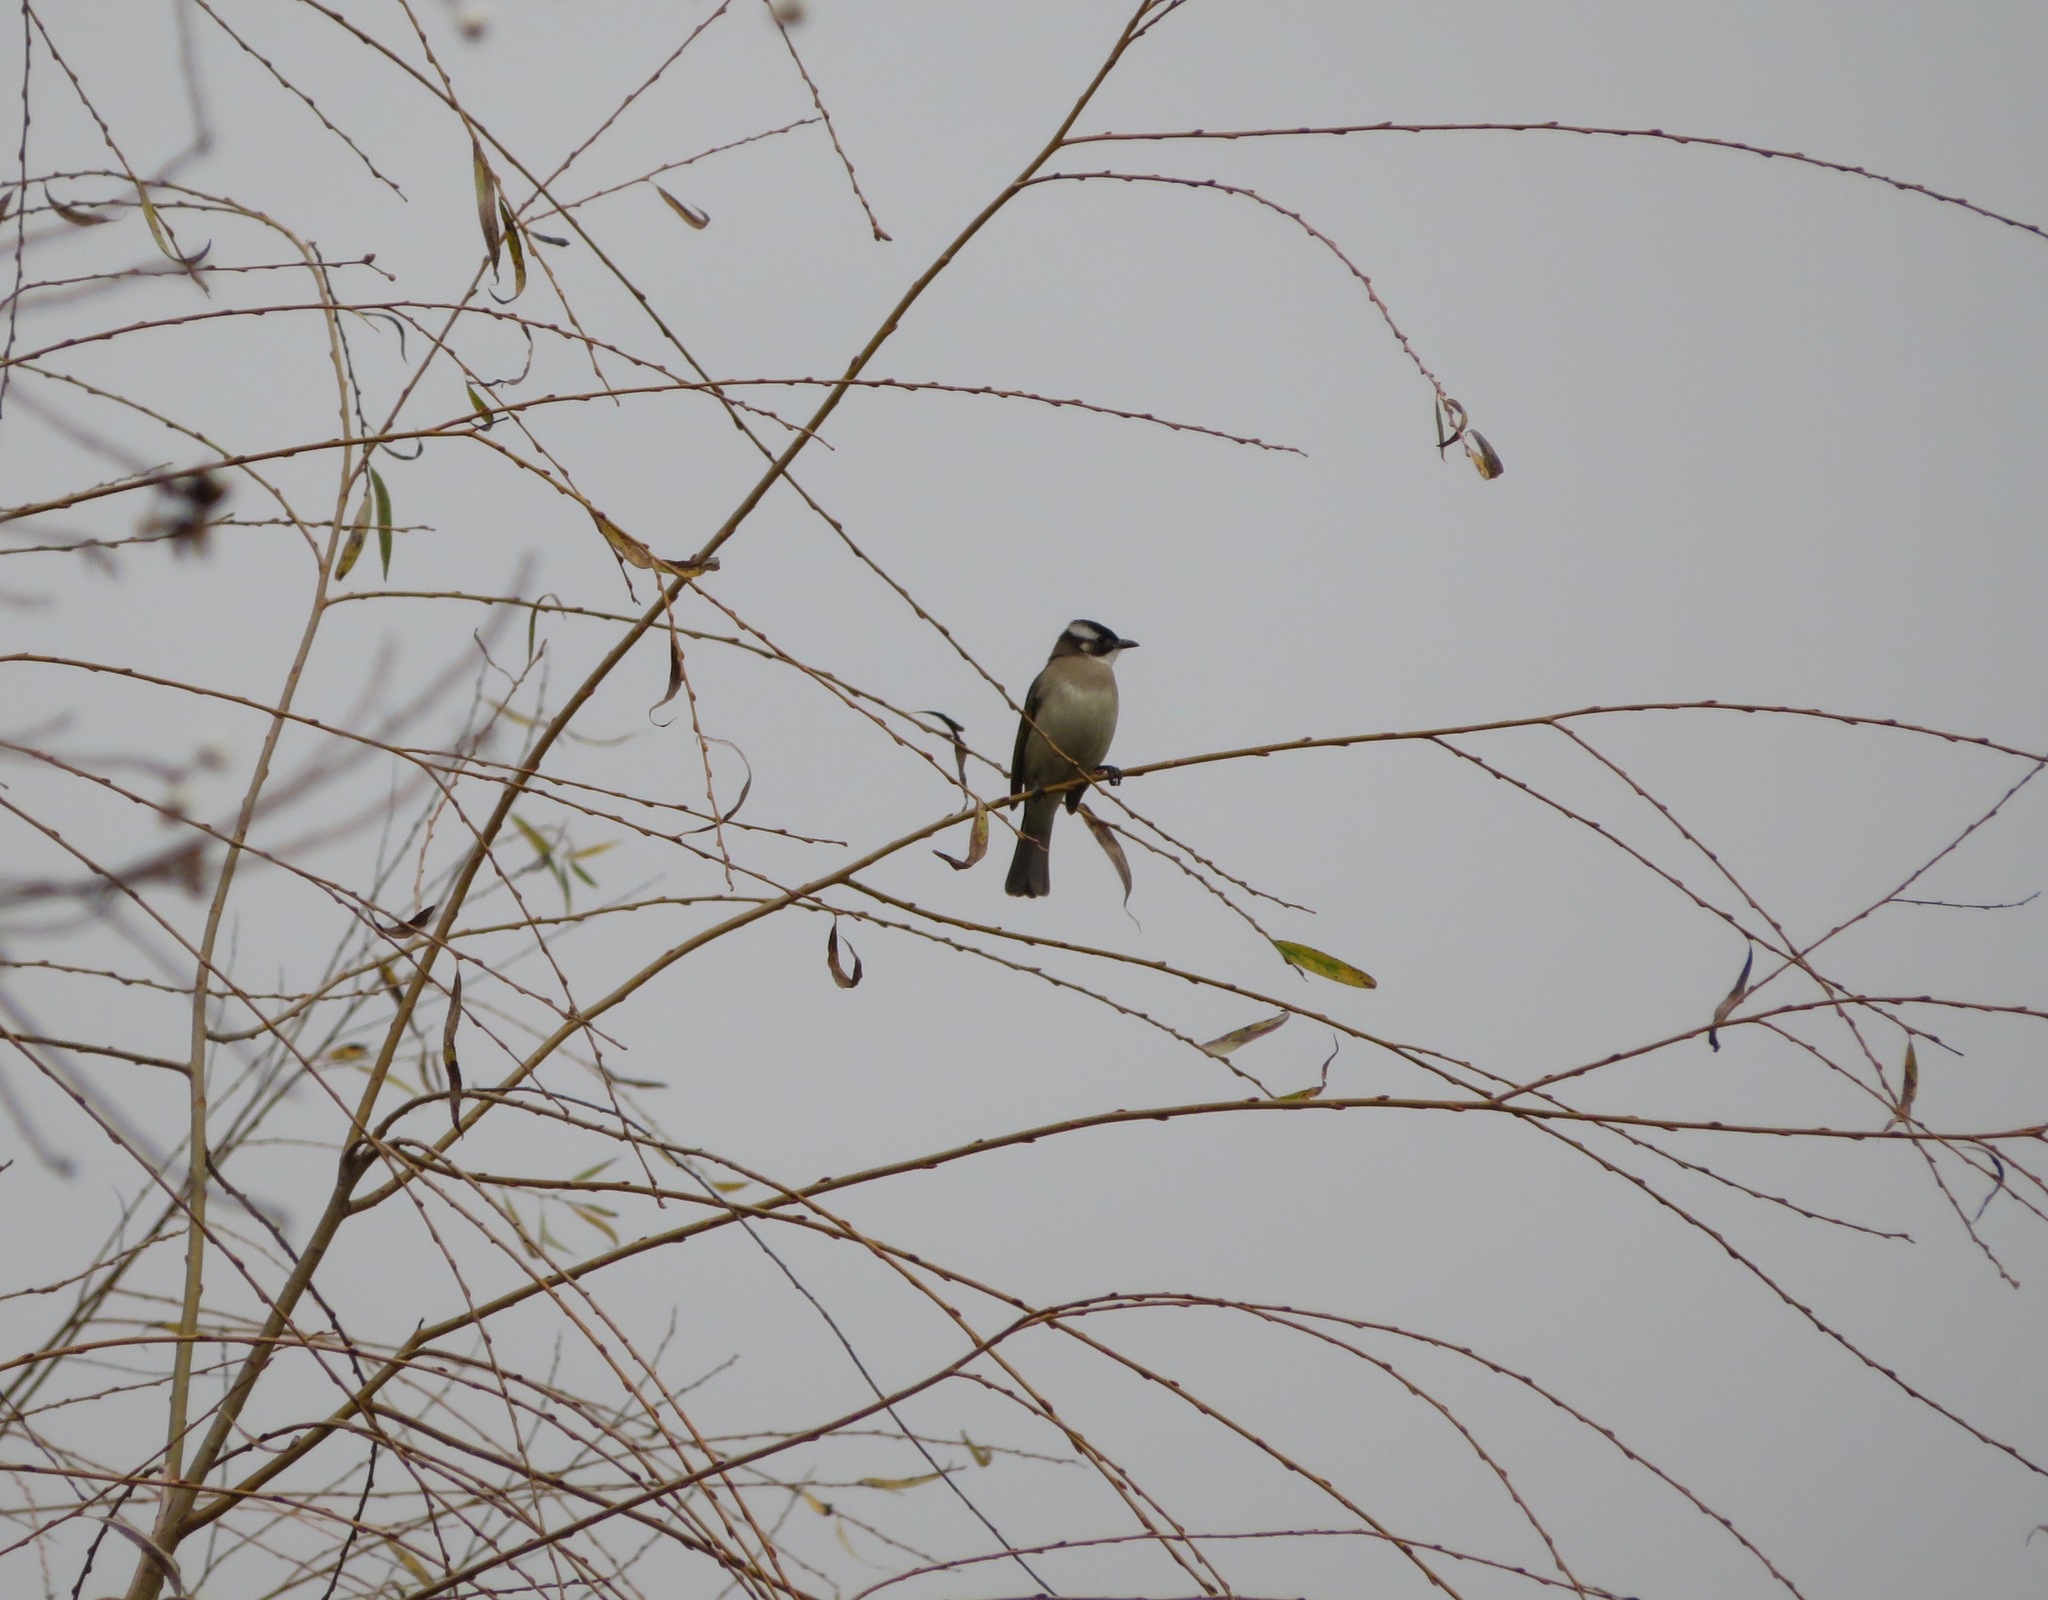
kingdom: Animalia
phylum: Chordata
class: Aves
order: Passeriformes
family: Pycnonotidae
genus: Pycnonotus
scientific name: Pycnonotus sinensis
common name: Light-vented bulbul
